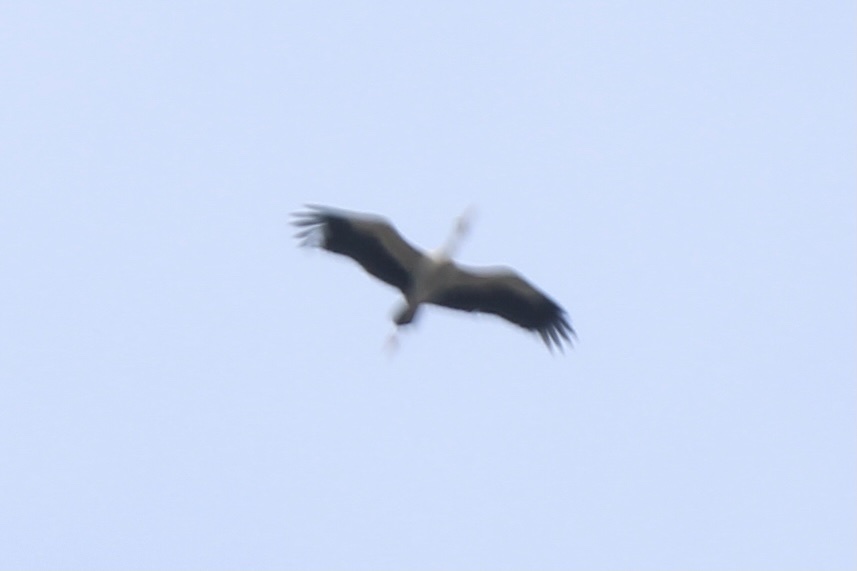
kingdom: Animalia
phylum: Chordata
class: Aves
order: Ciconiiformes
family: Ciconiidae
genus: Anastomus
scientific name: Anastomus oscitans
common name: Asian openbill
